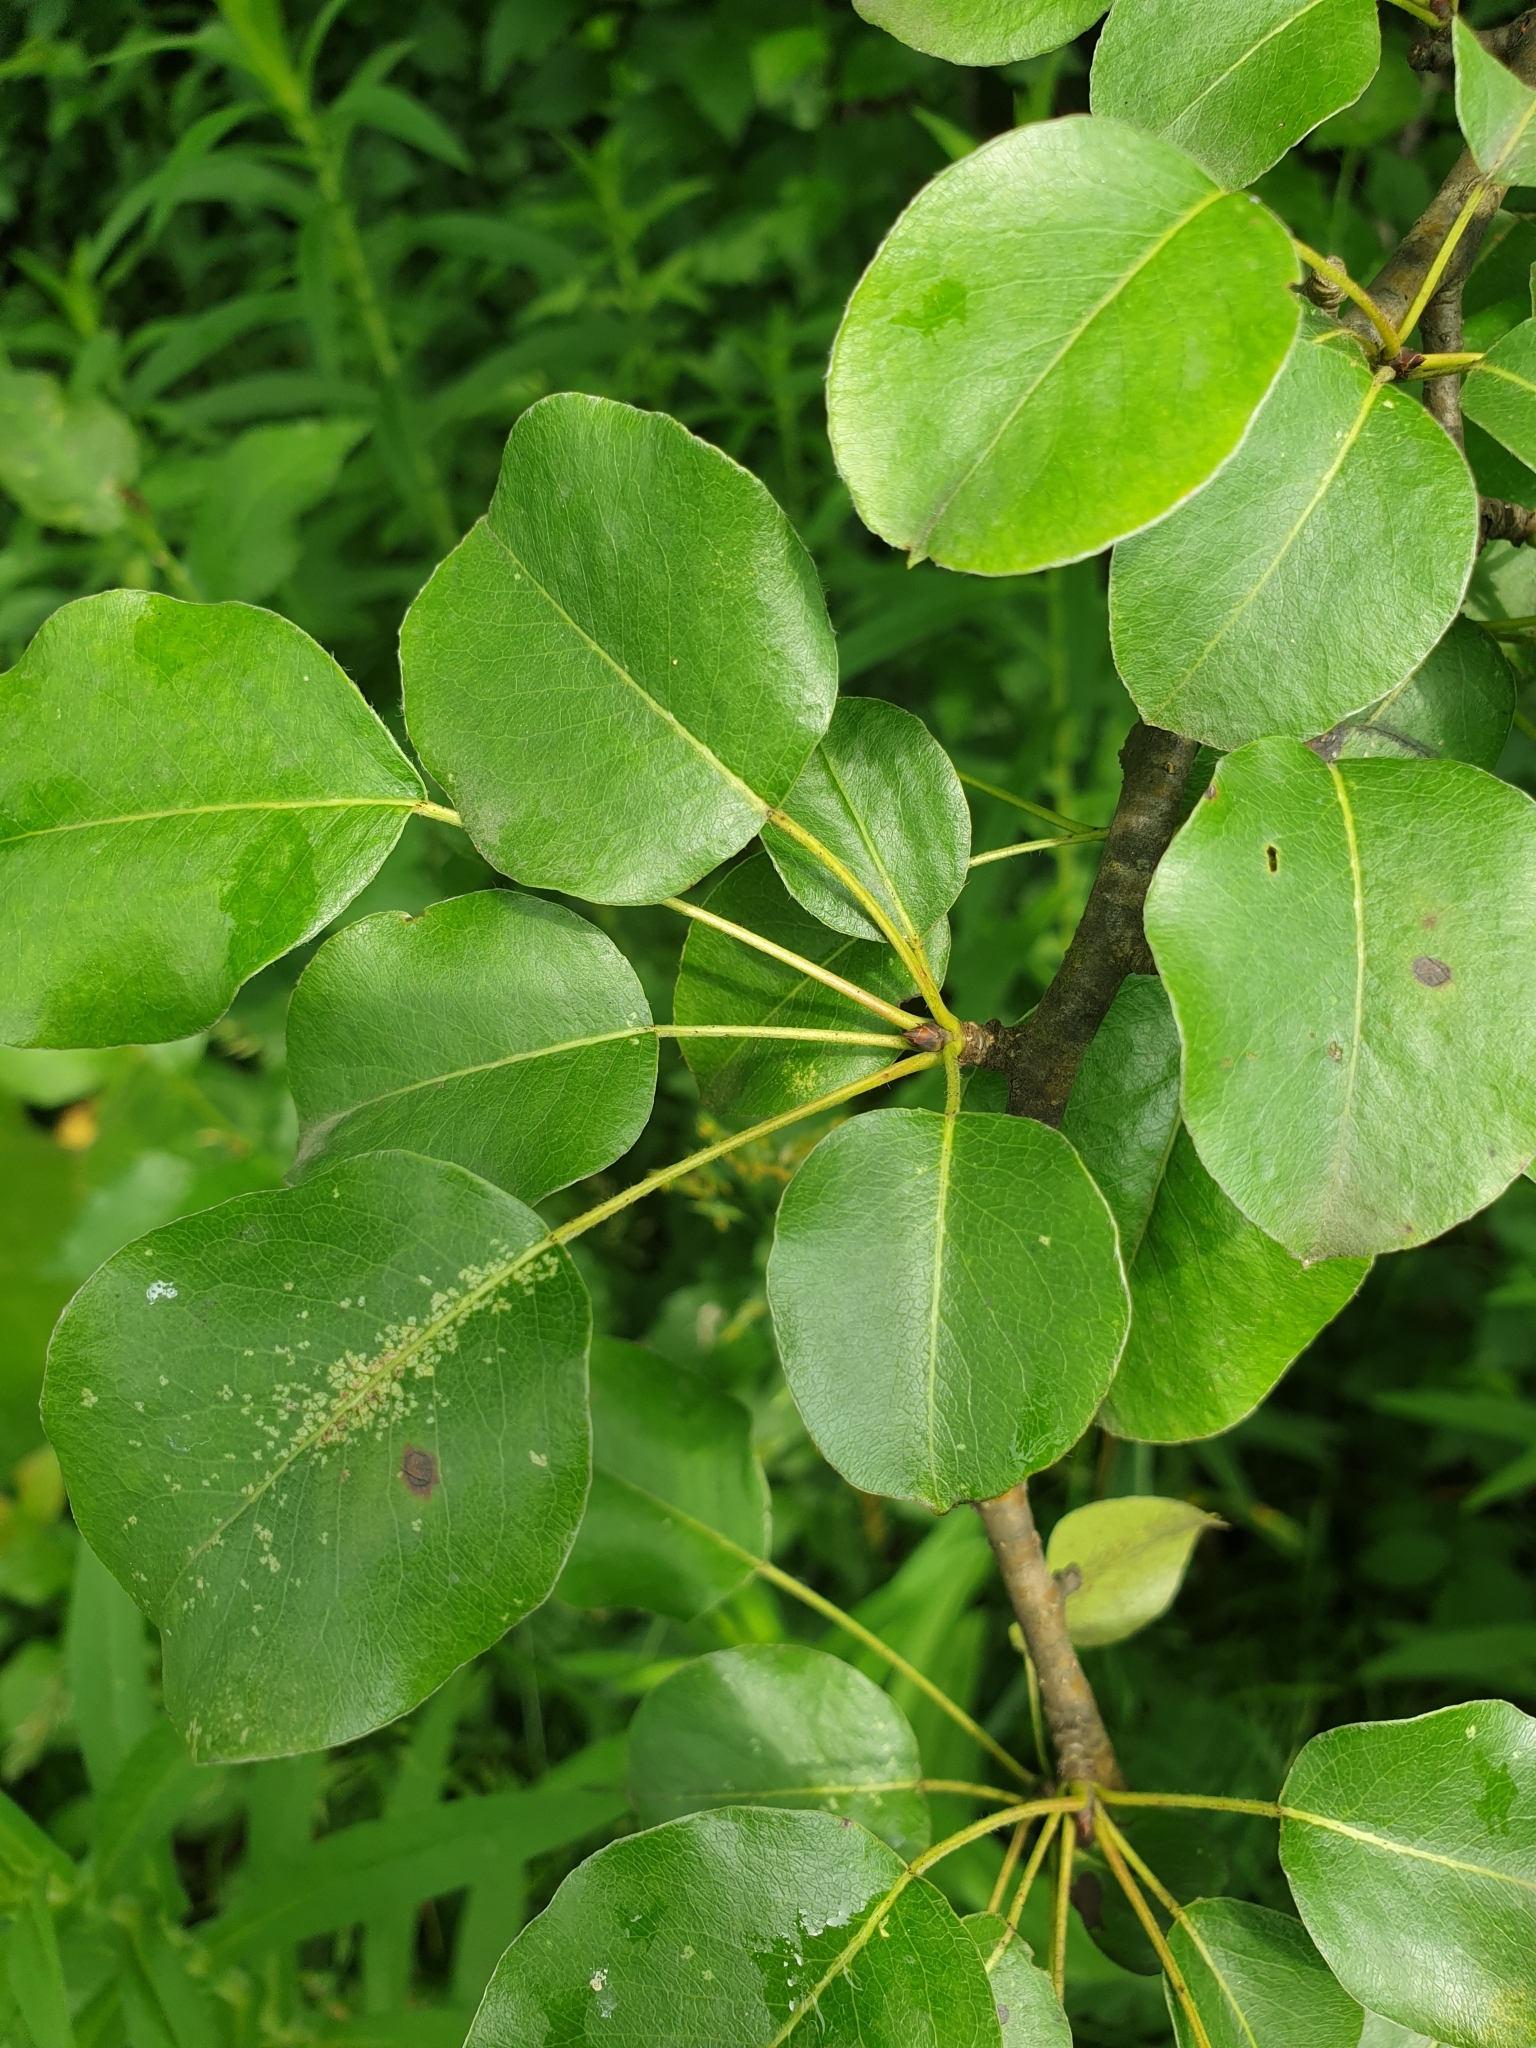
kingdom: Plantae
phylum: Tracheophyta
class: Magnoliopsida
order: Rosales
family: Rosaceae
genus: Pyrus
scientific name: Pyrus communis
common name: Pear
